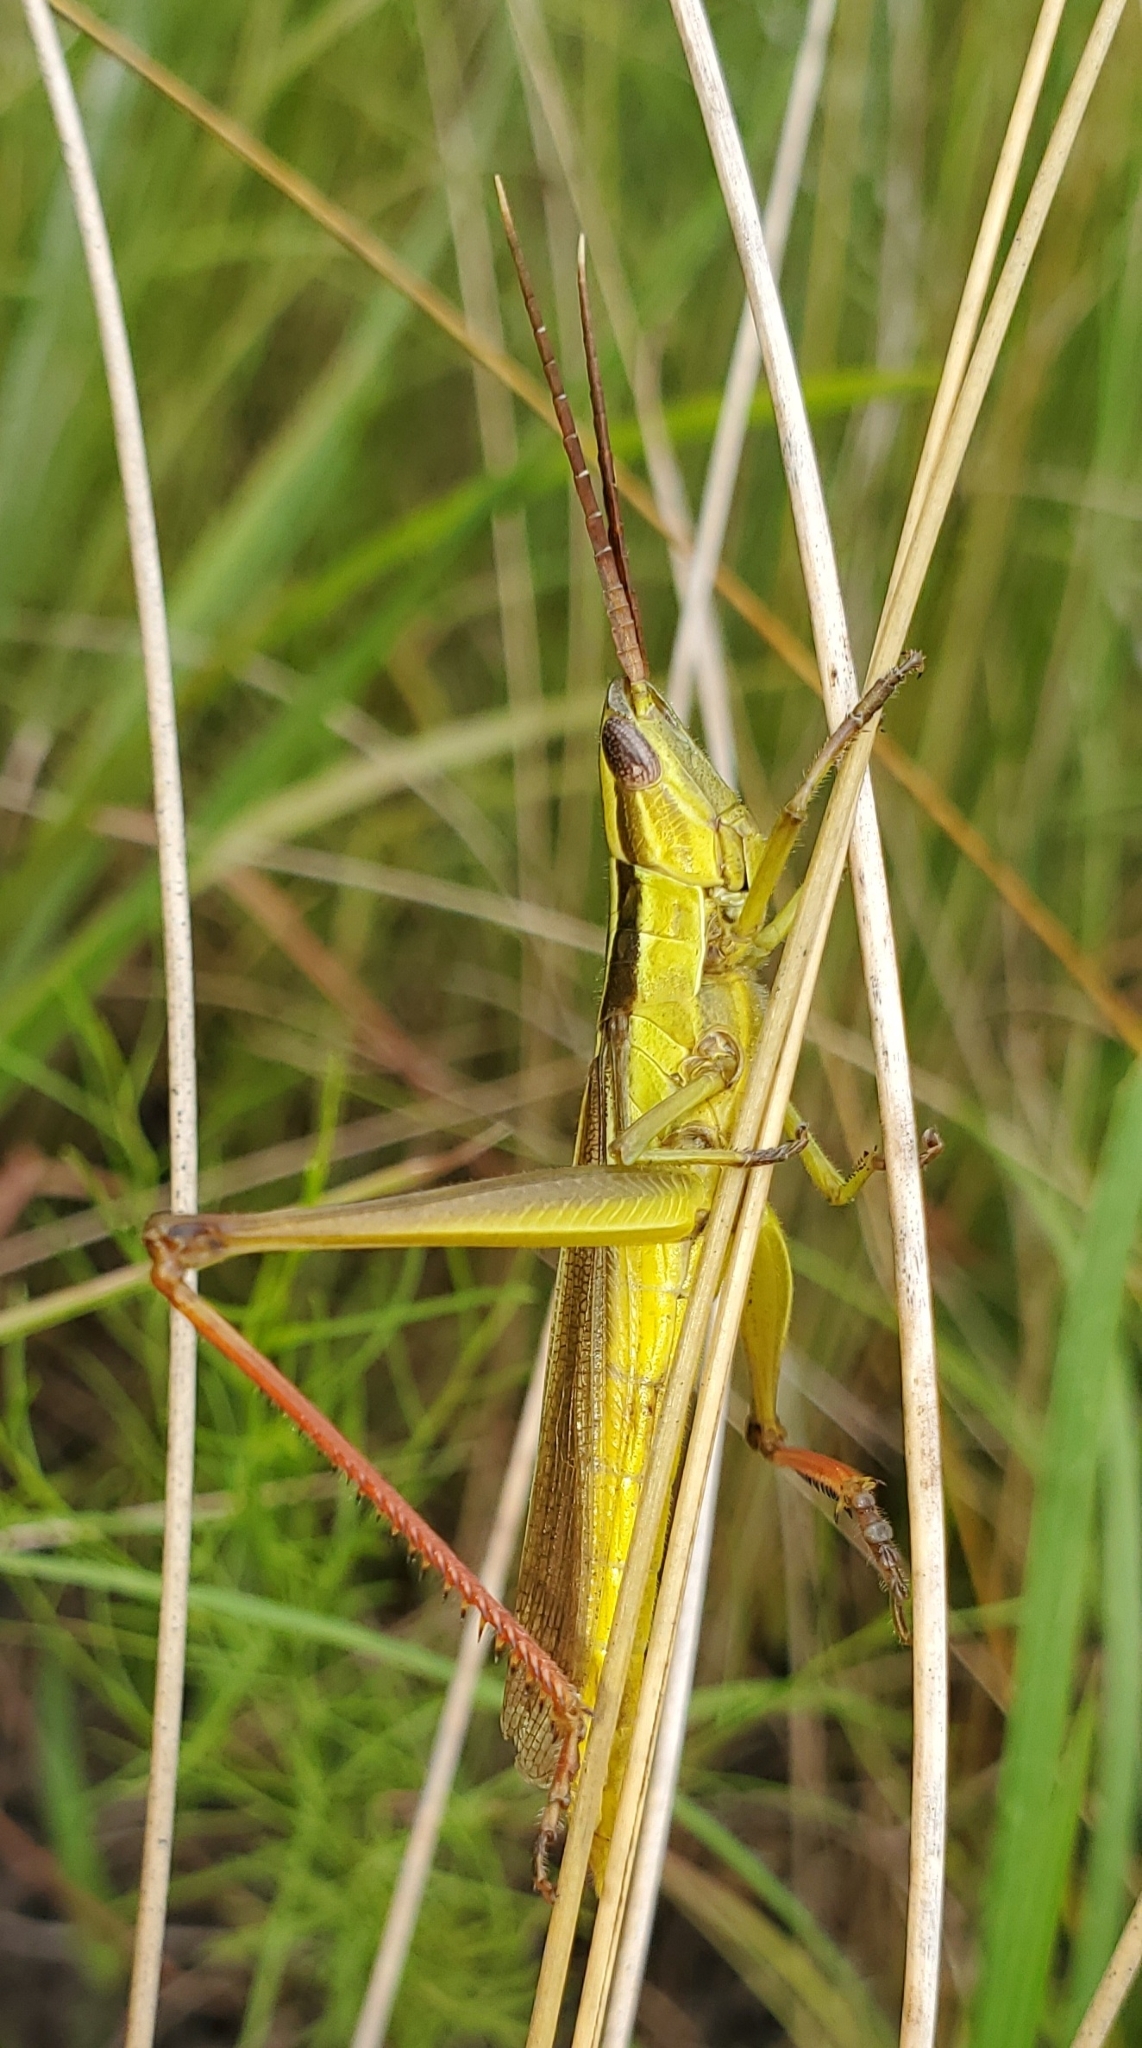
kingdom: Animalia
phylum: Arthropoda
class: Insecta
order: Orthoptera
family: Acrididae
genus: Mermiria
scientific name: Mermiria intertexta
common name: Eastern mermiria grasshopper
